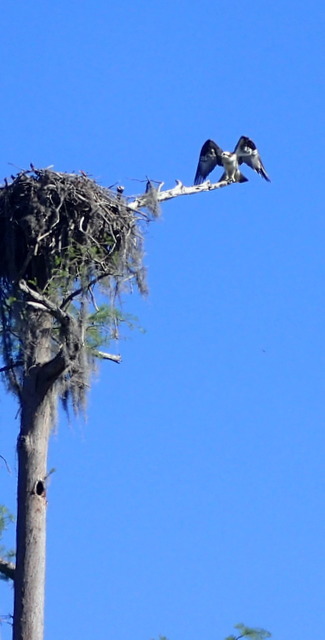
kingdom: Animalia
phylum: Chordata
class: Aves
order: Accipitriformes
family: Pandionidae
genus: Pandion
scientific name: Pandion haliaetus
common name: Osprey
